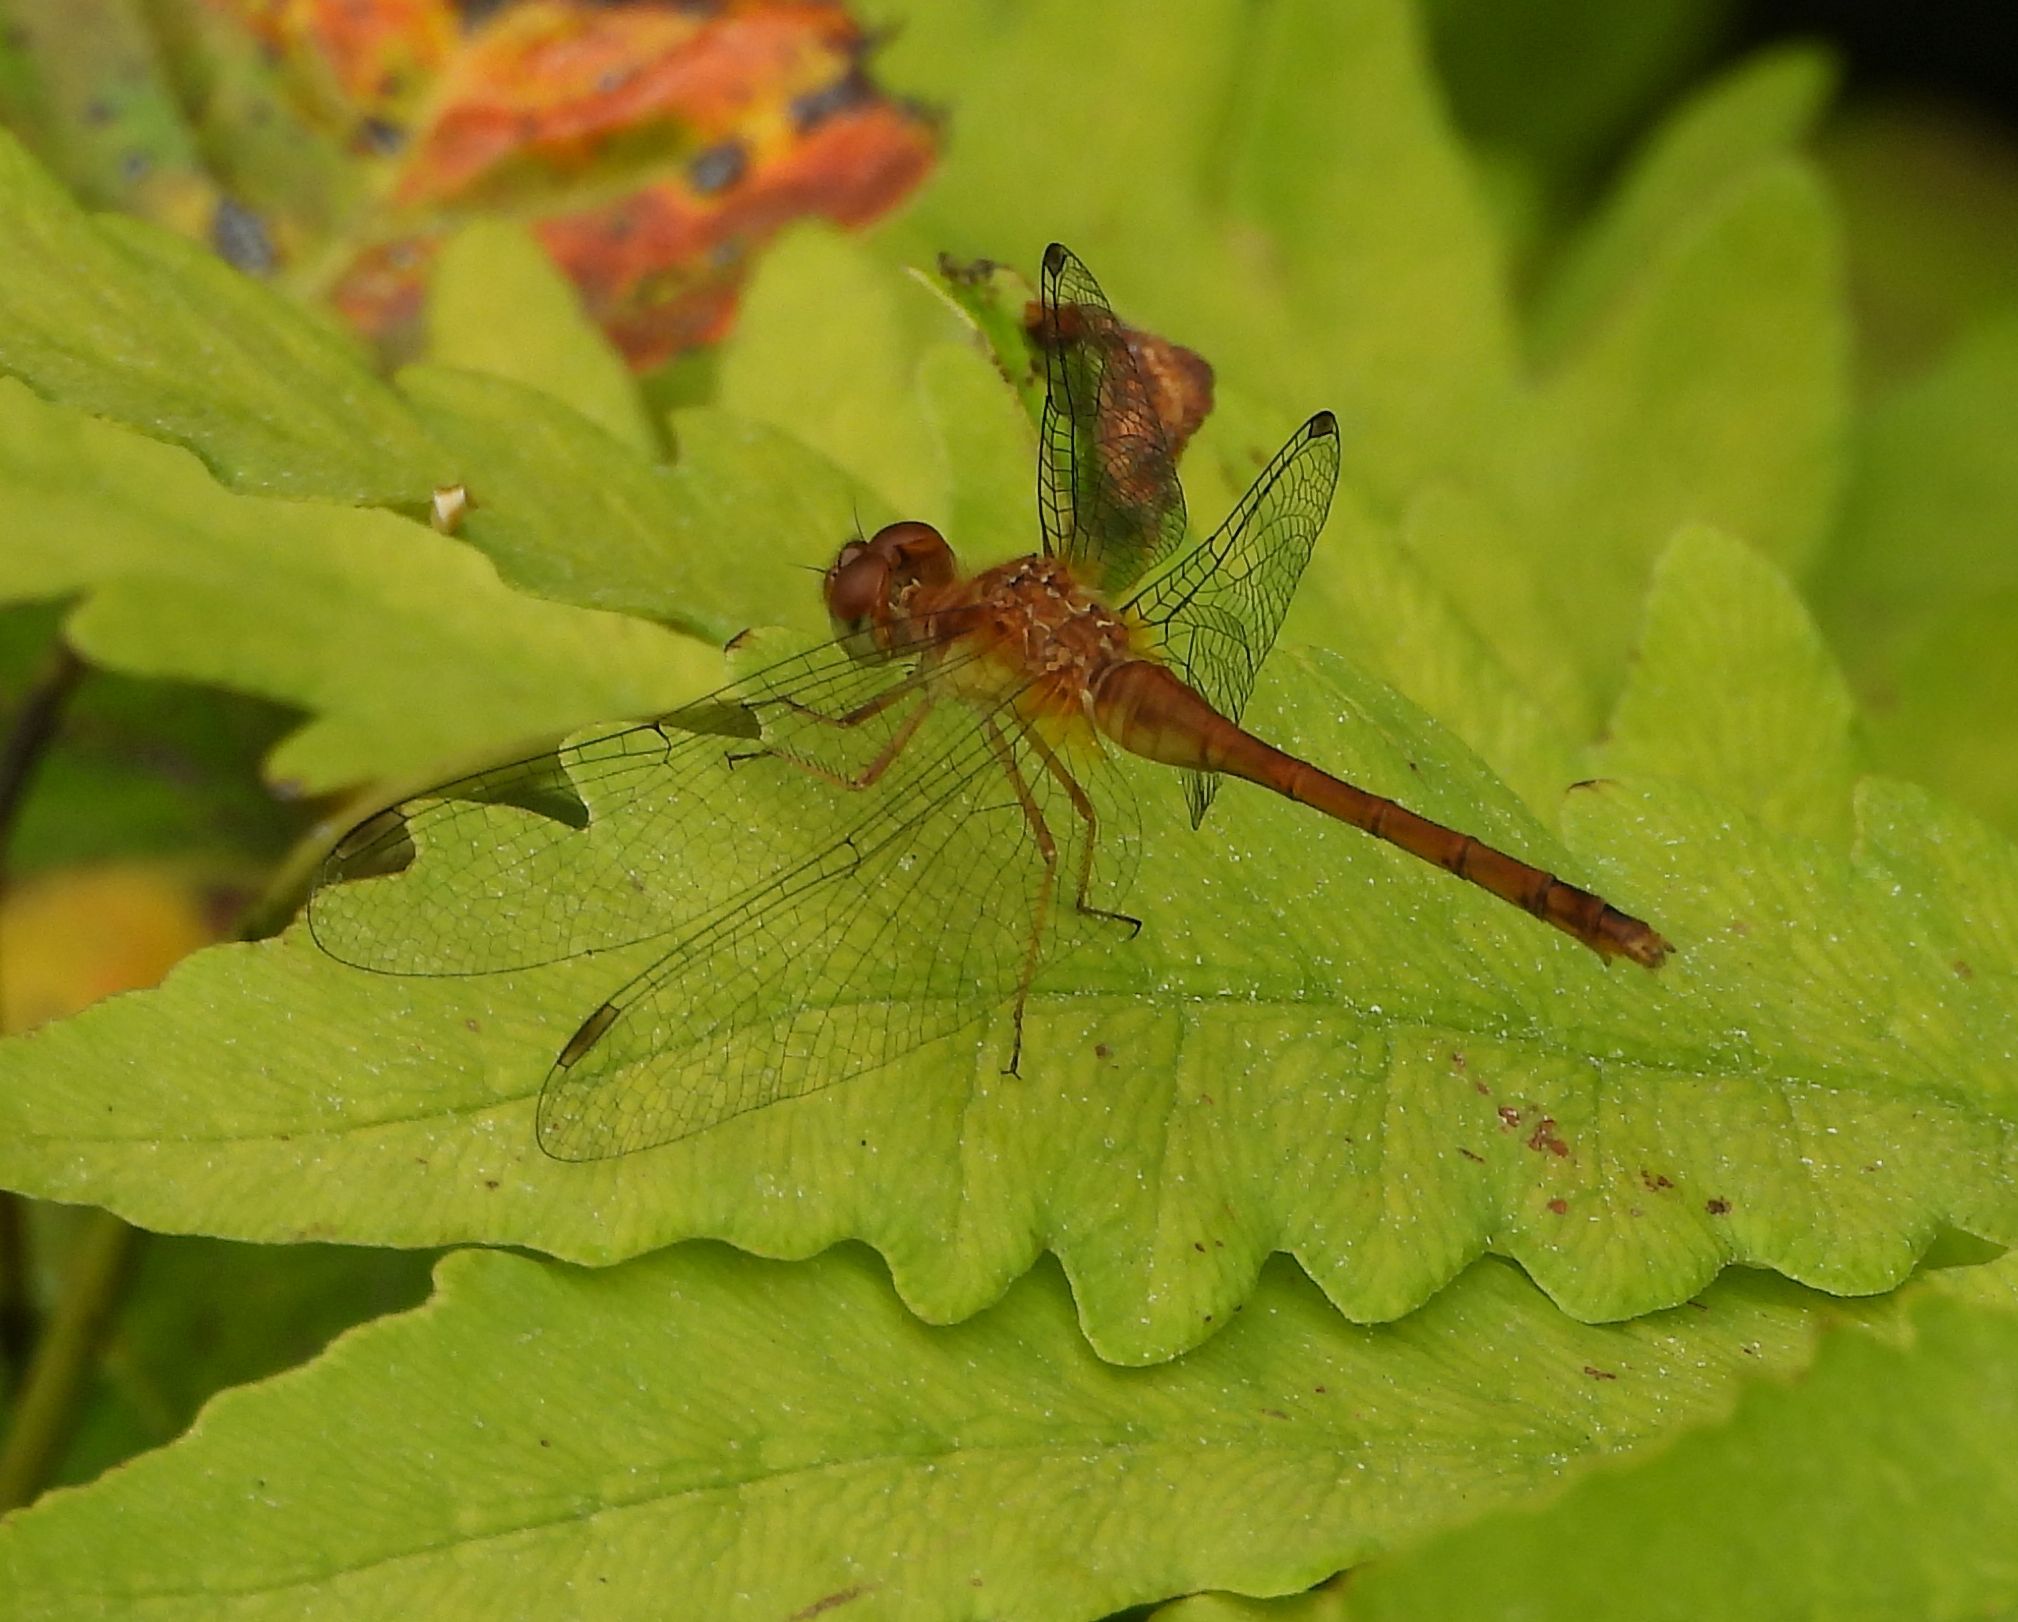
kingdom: Animalia
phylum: Arthropoda
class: Insecta
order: Odonata
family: Libellulidae
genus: Sympetrum
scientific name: Sympetrum vicinum
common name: Autumn meadowhawk
